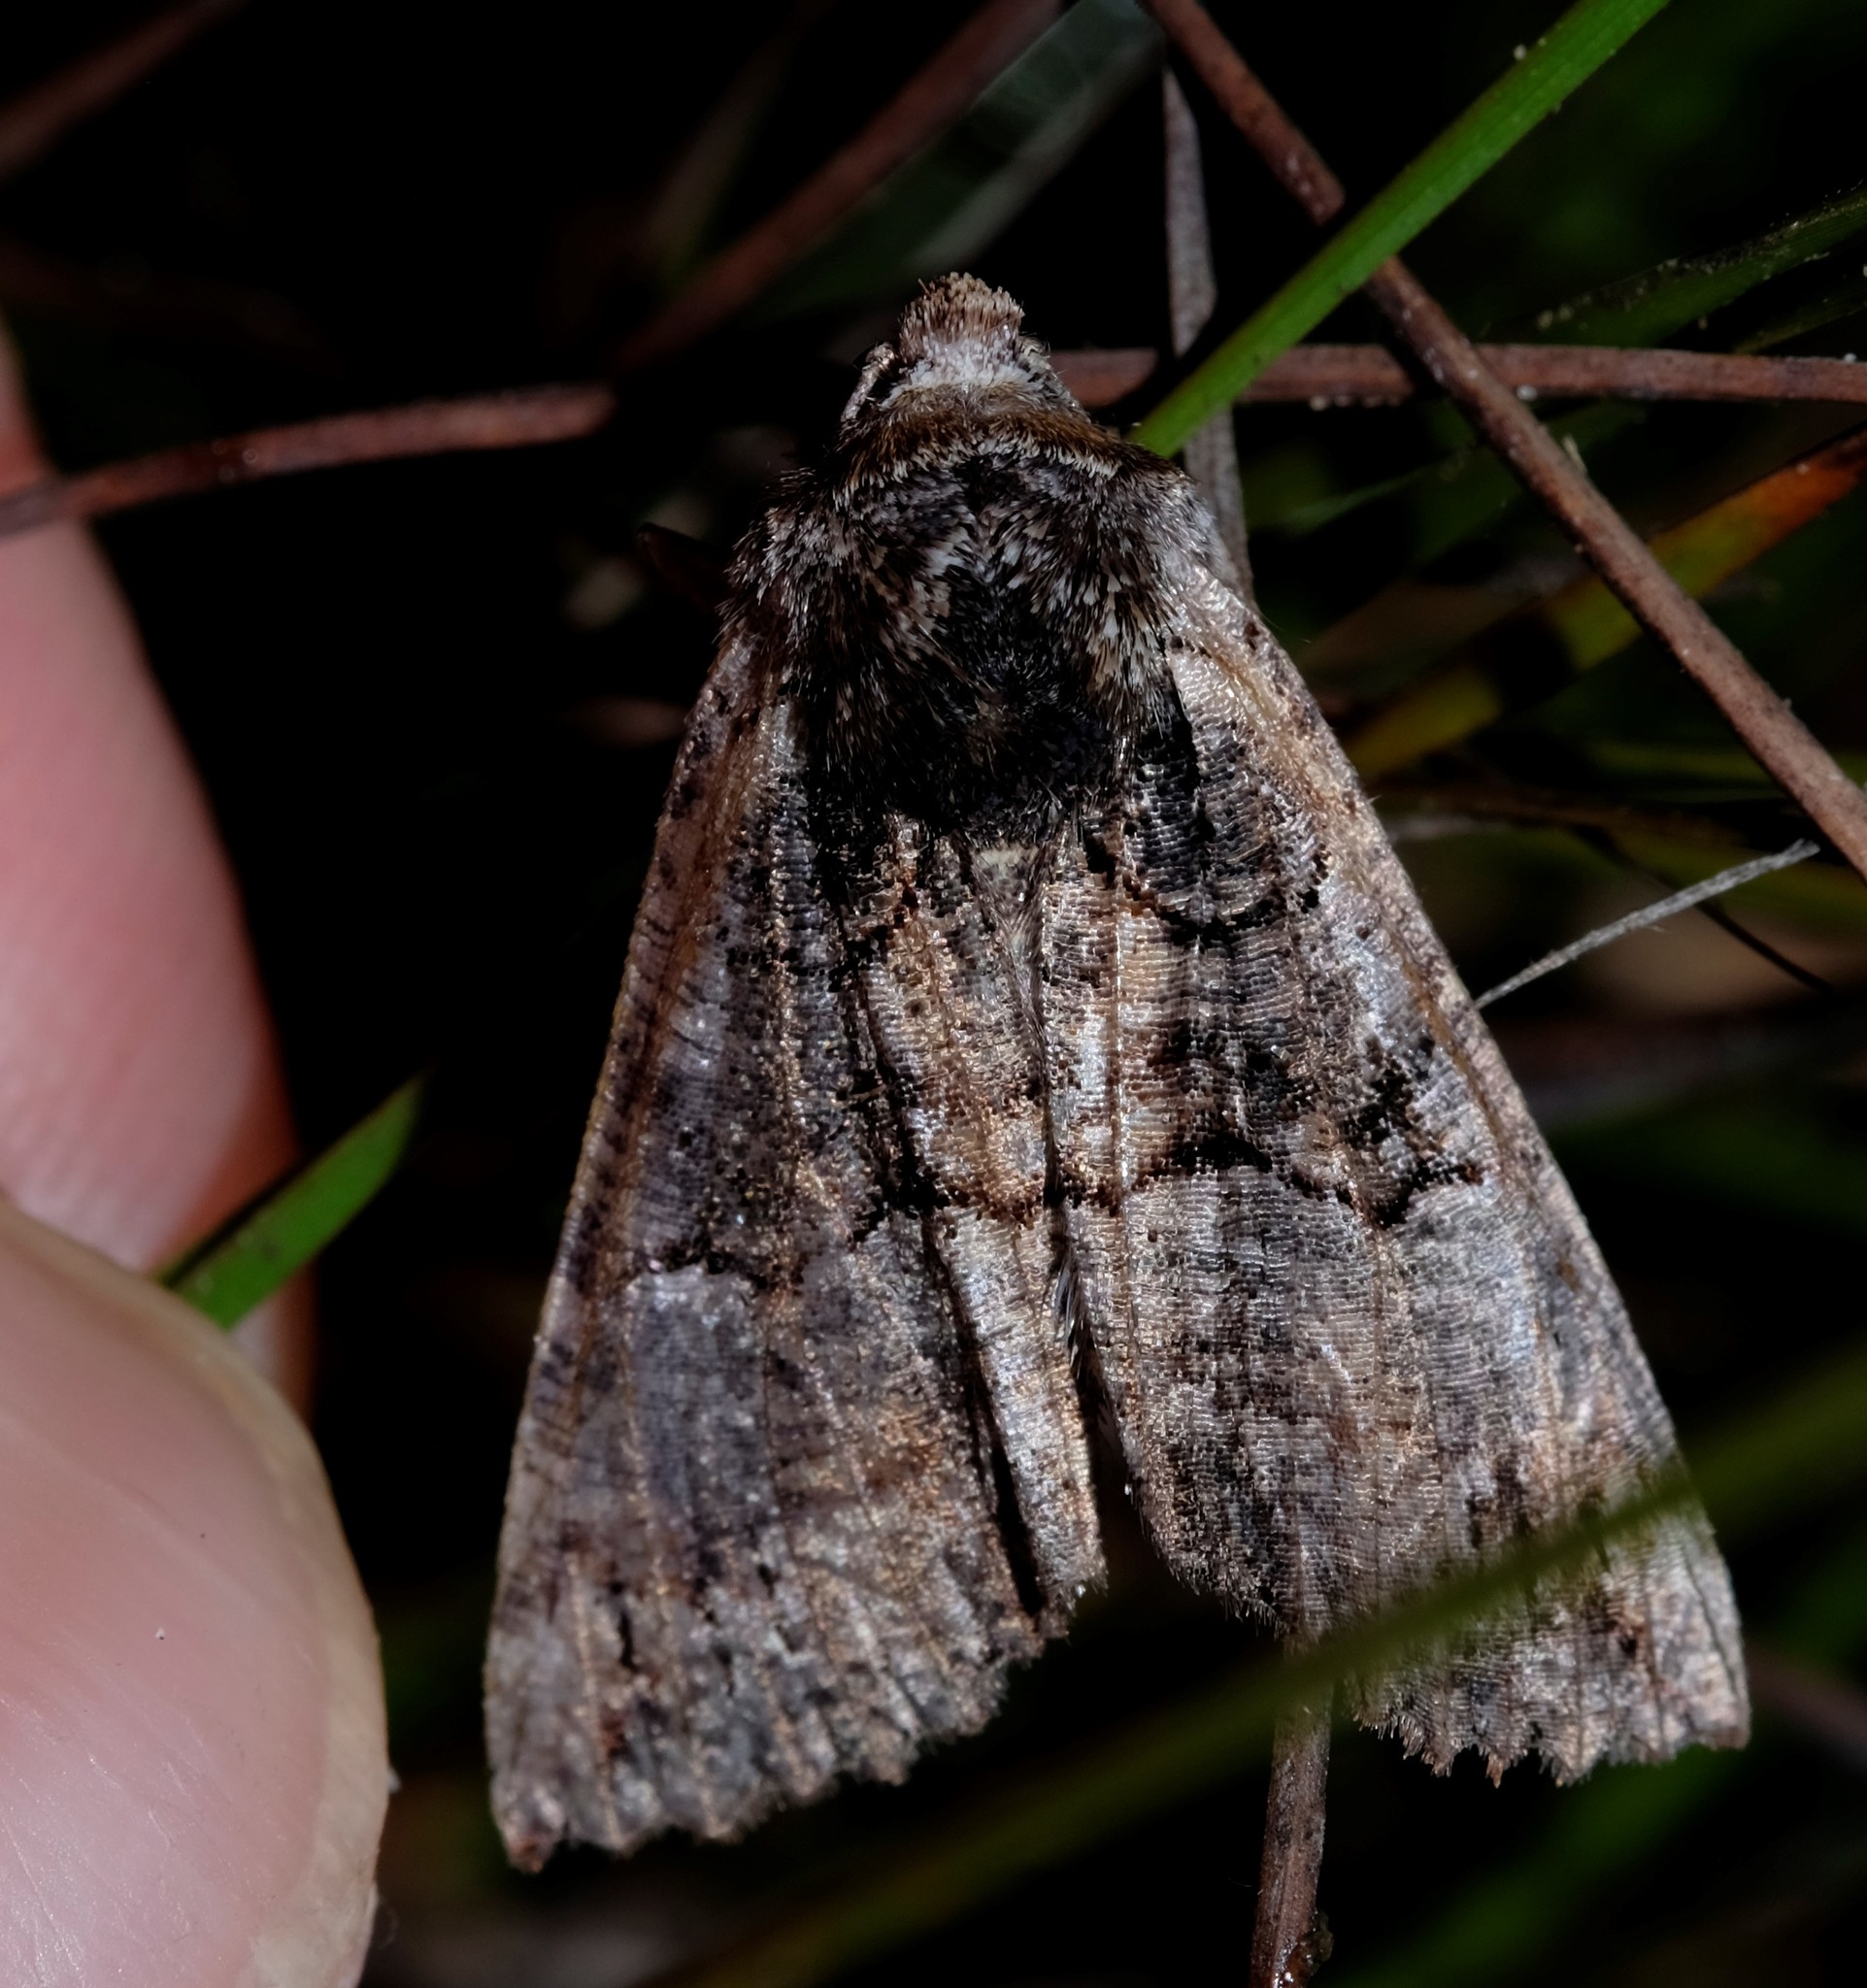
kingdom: Animalia
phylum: Arthropoda
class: Insecta
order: Lepidoptera
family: Geometridae
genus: Nisista
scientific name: Nisista notodontaria
